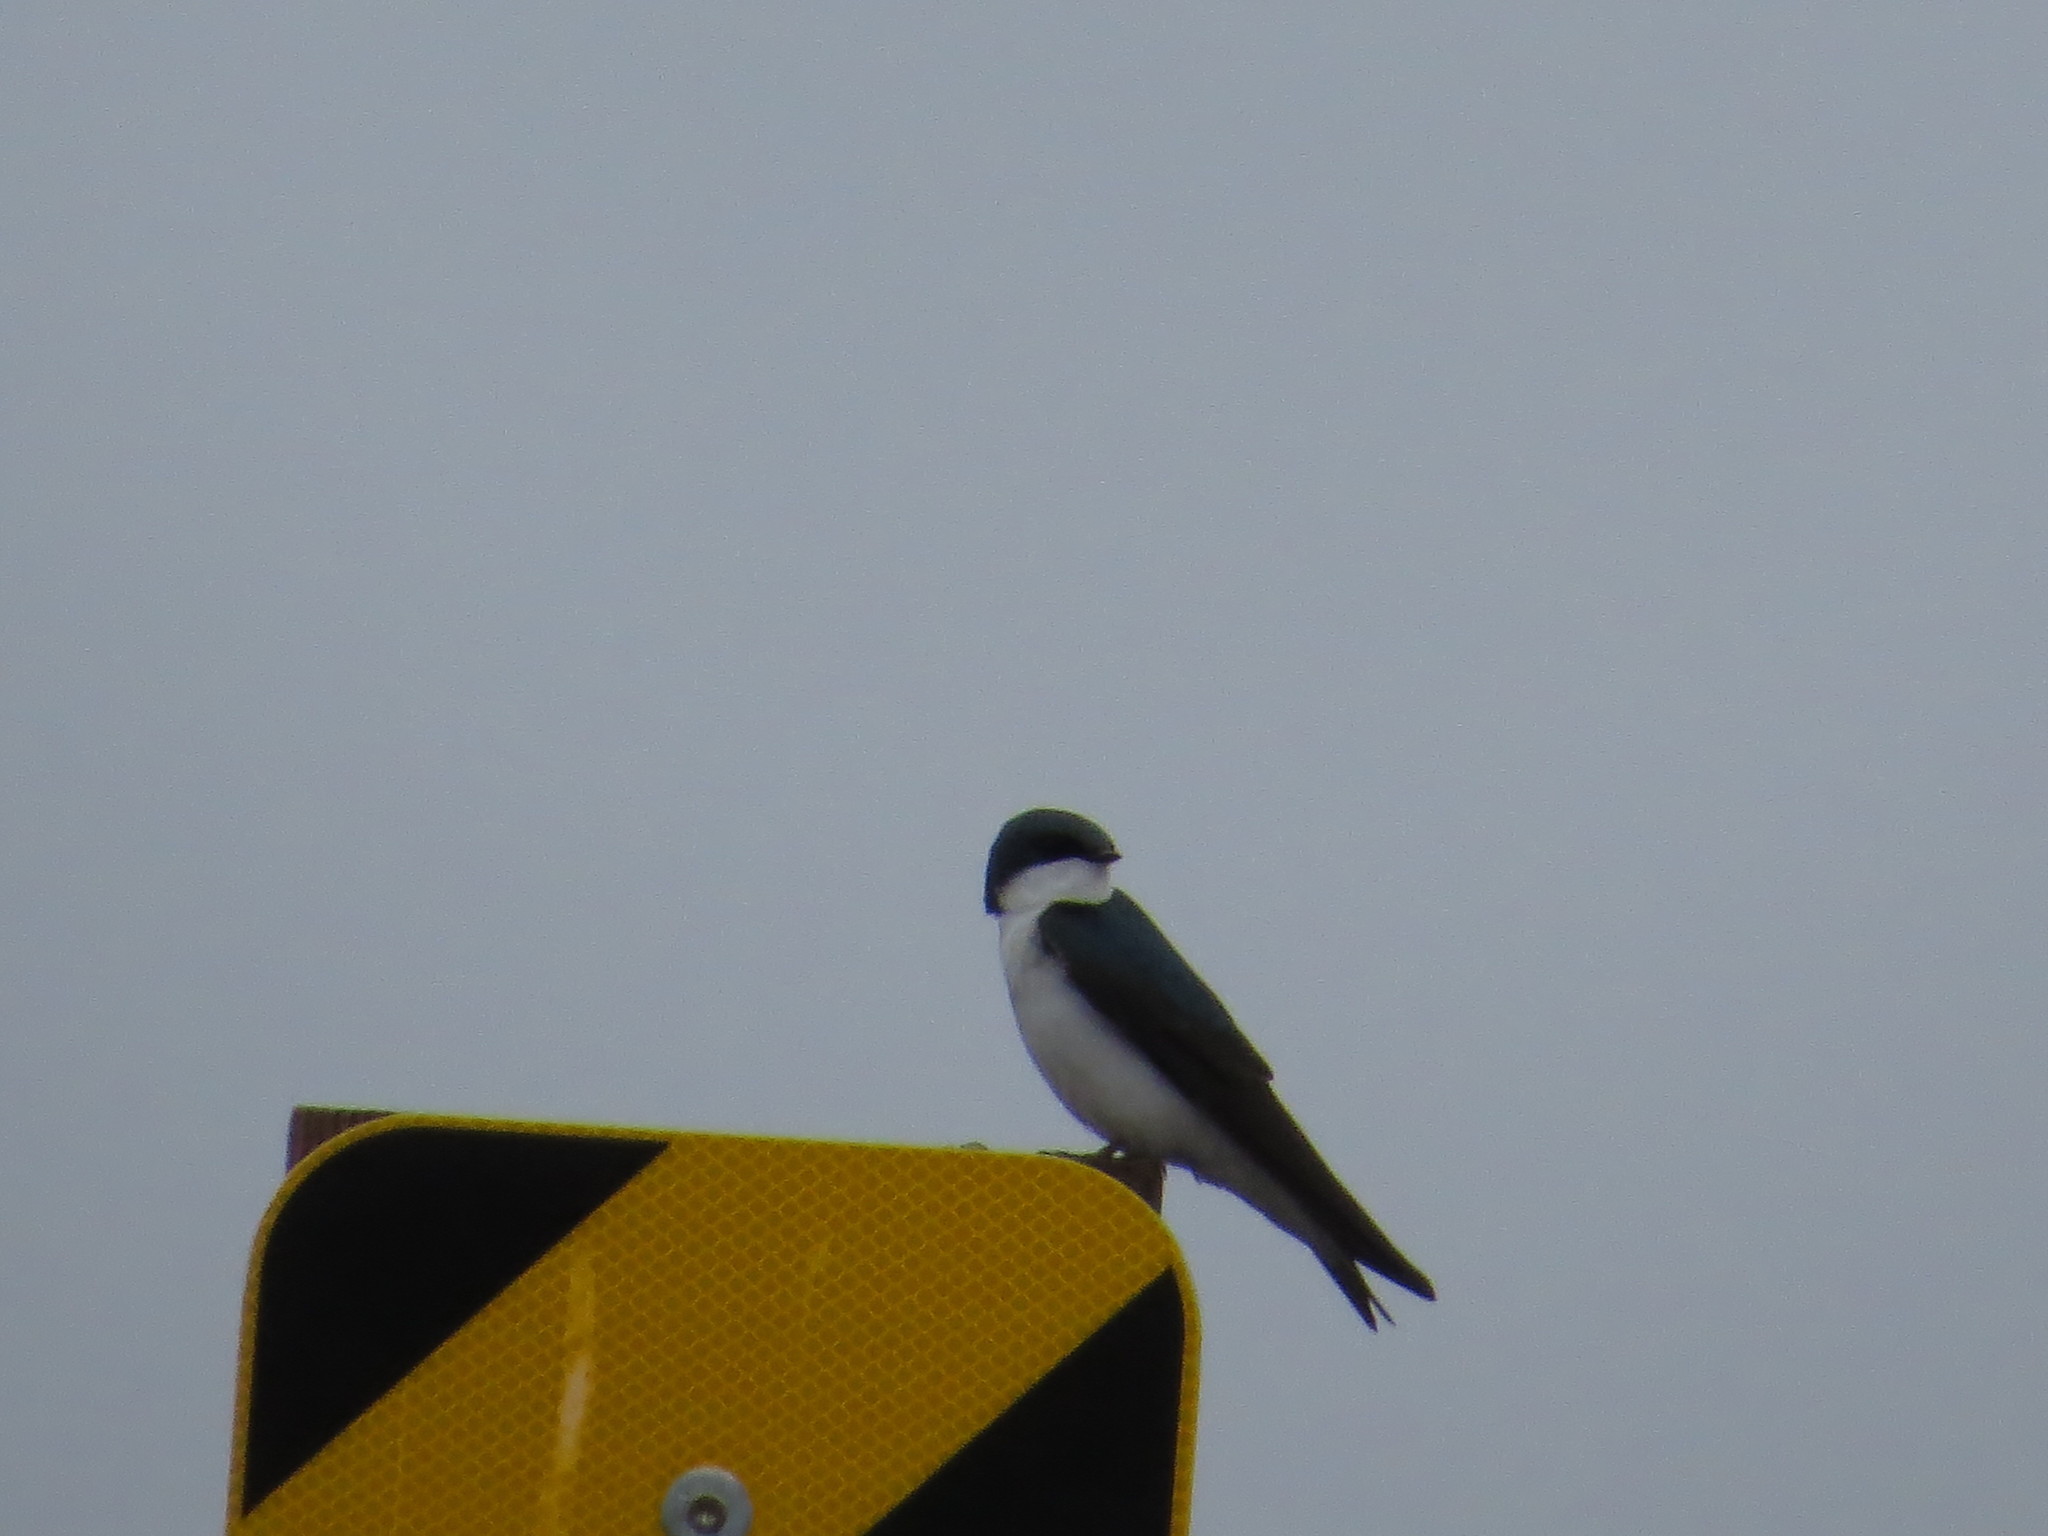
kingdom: Animalia
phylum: Chordata
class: Aves
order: Passeriformes
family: Hirundinidae
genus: Tachycineta
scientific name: Tachycineta bicolor
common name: Tree swallow
